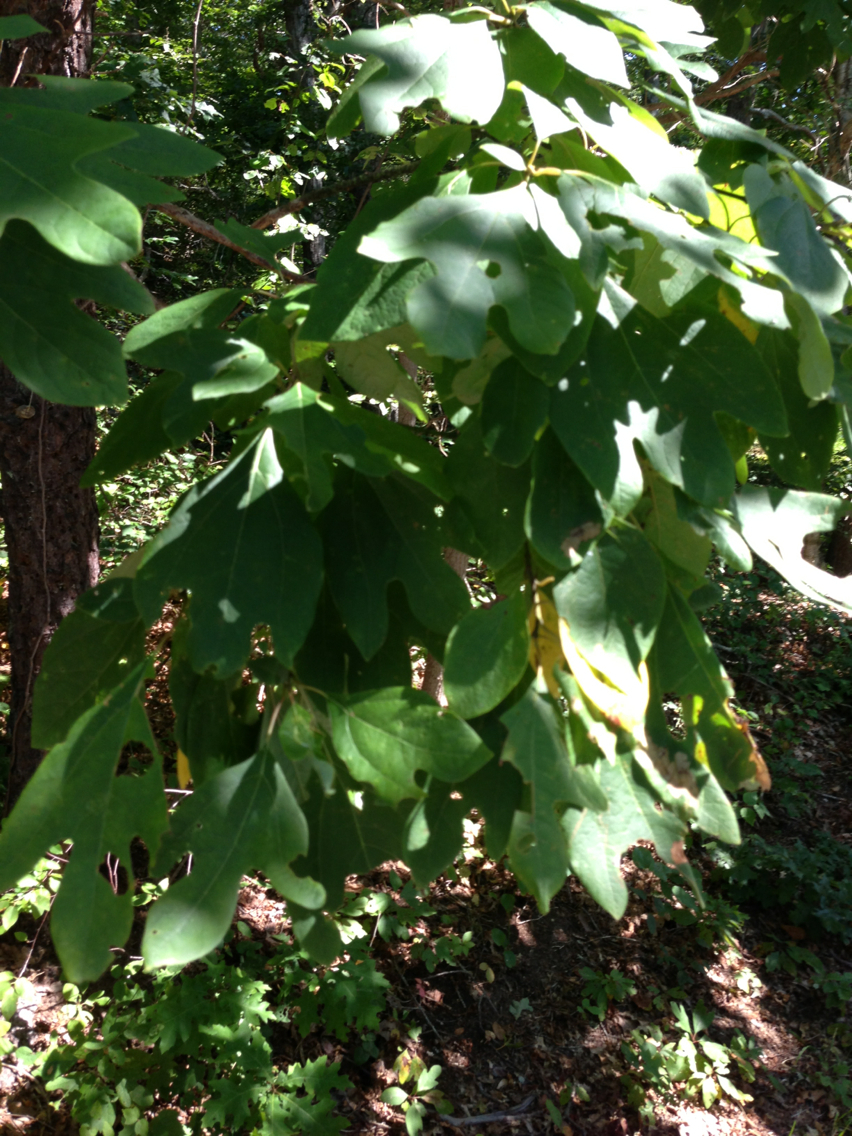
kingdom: Plantae
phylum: Tracheophyta
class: Magnoliopsida
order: Laurales
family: Lauraceae
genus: Sassafras
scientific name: Sassafras albidum
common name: Sassafras
